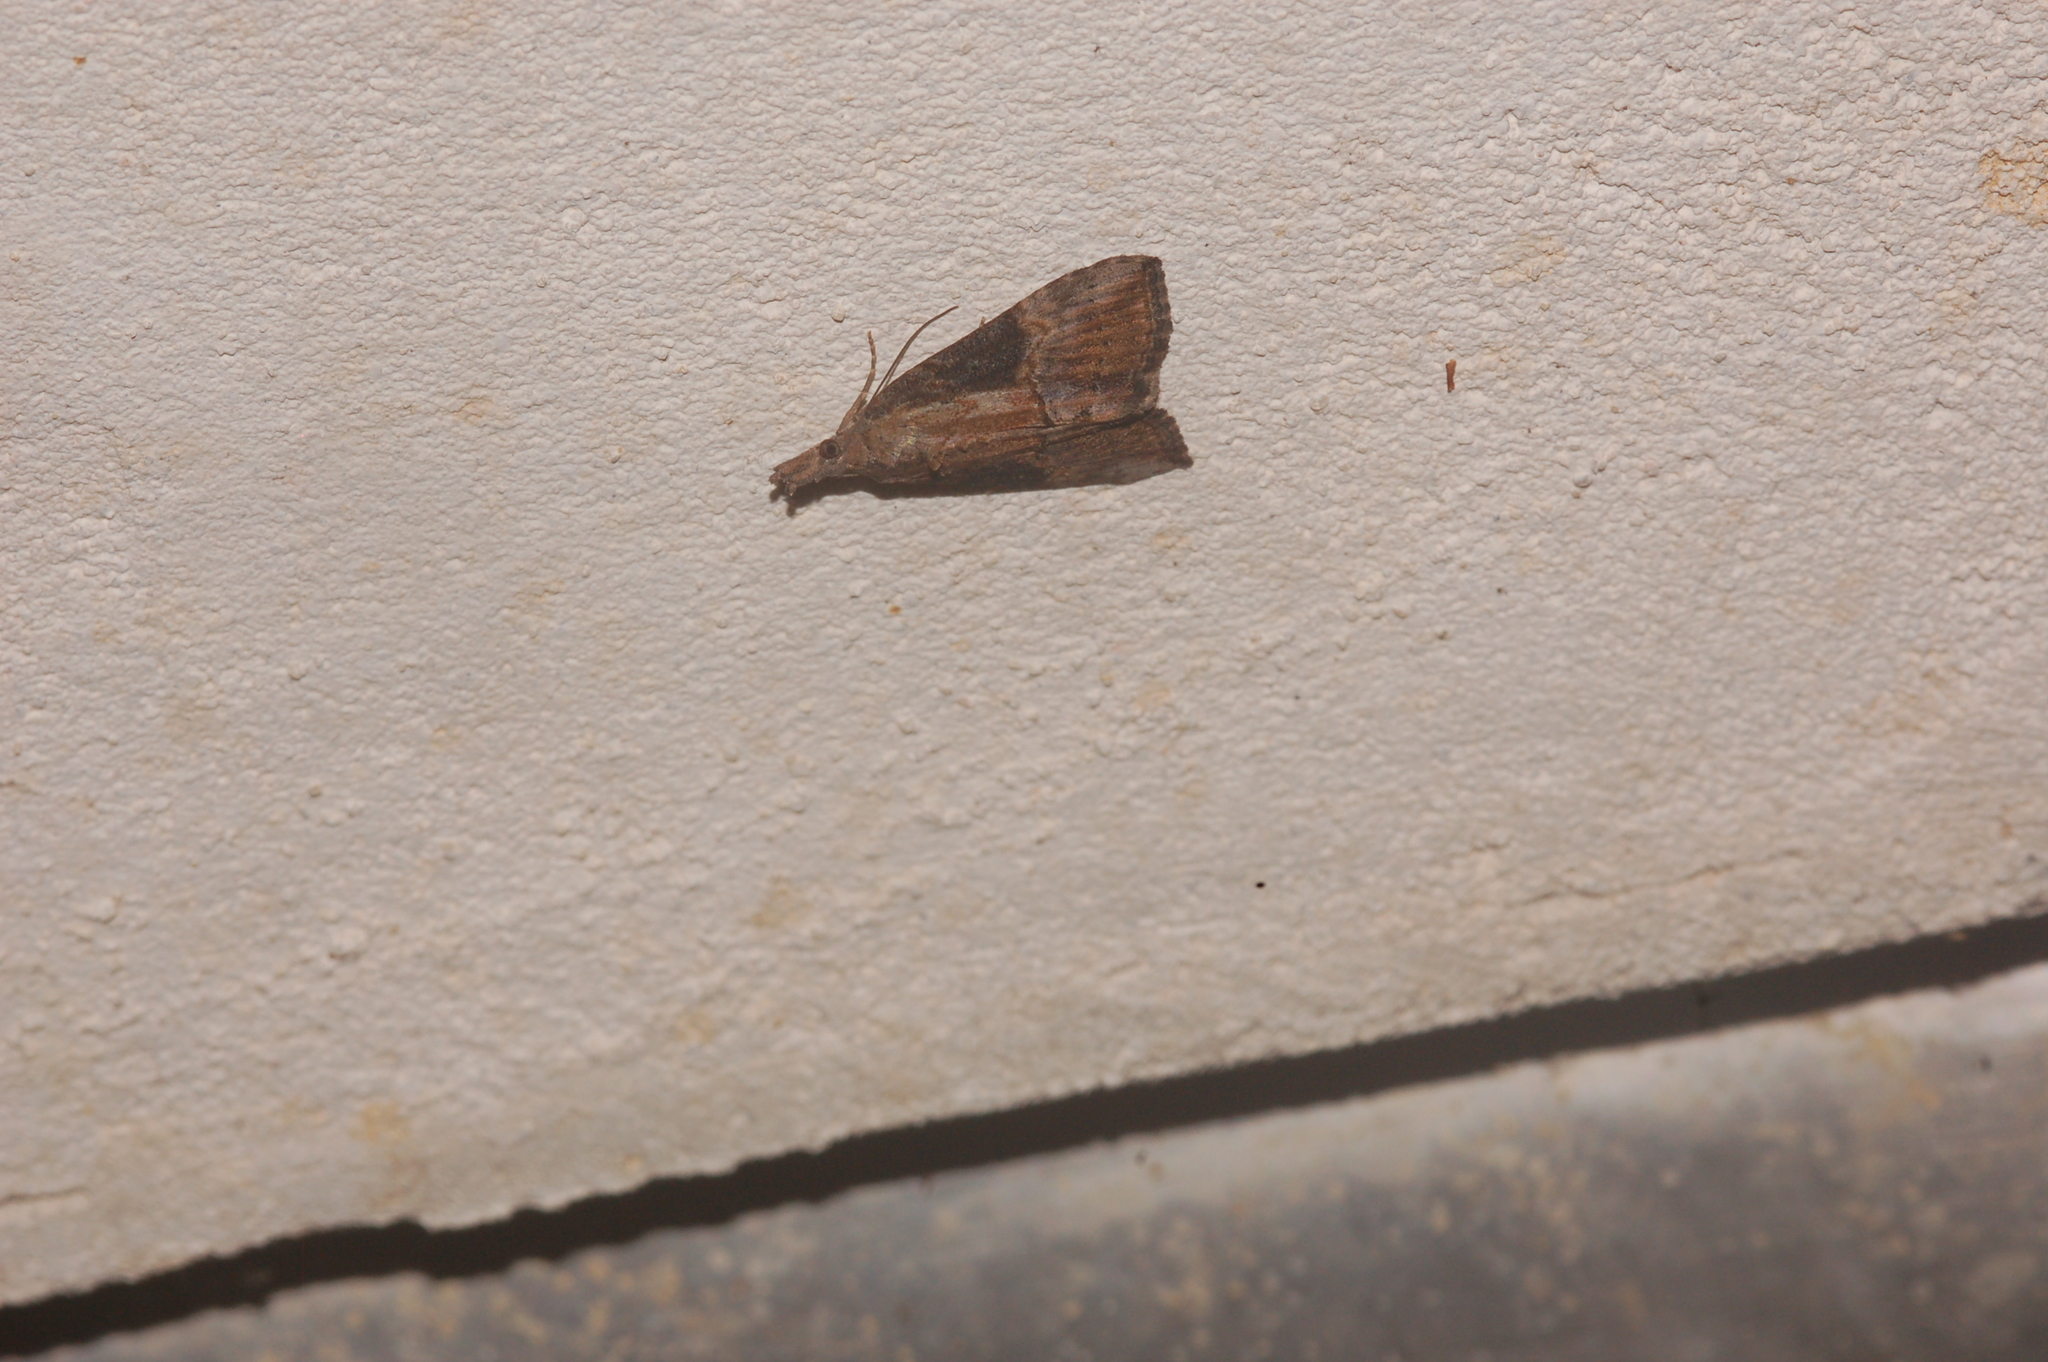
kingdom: Animalia
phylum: Arthropoda
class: Insecta
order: Lepidoptera
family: Erebidae
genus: Hypena
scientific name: Hypena scabra
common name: Green cloverworm
